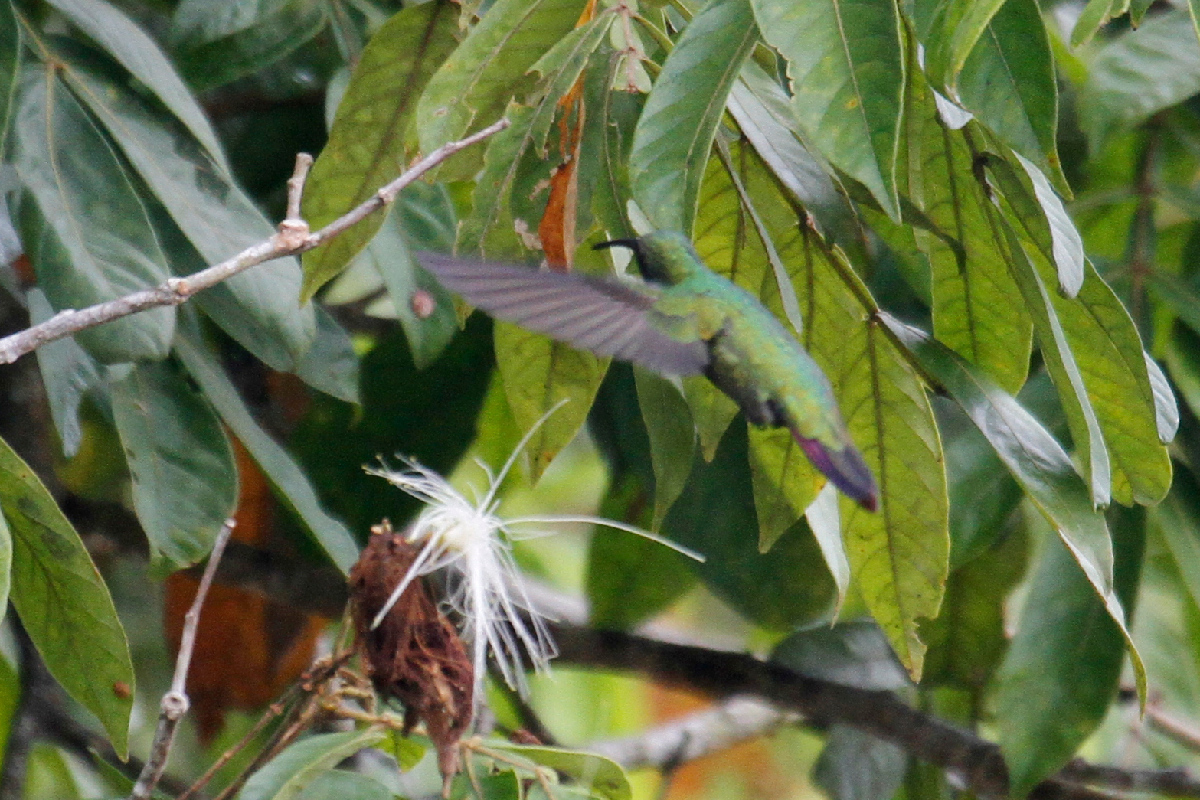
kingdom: Animalia
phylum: Chordata
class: Aves
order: Apodiformes
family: Trochilidae
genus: Anthracothorax
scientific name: Anthracothorax prevostii
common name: Green-breasted mango
